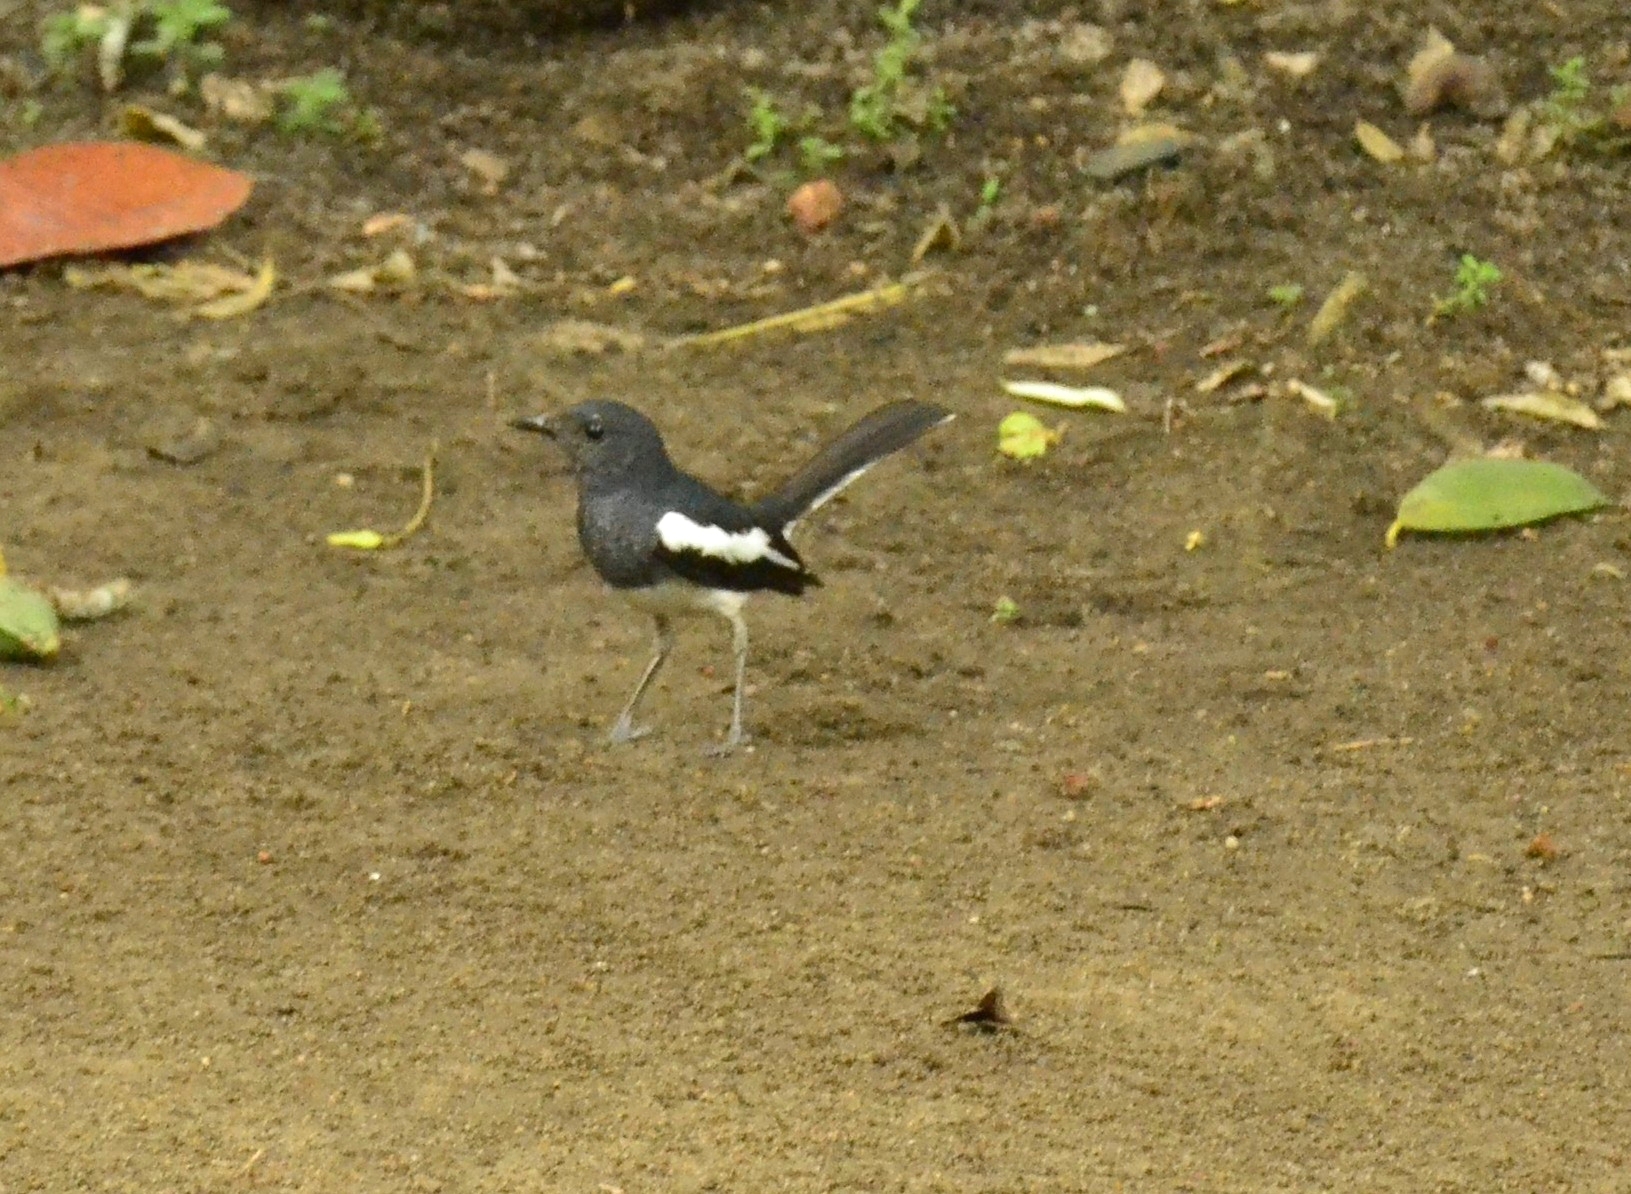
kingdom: Animalia
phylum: Chordata
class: Aves
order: Passeriformes
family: Muscicapidae
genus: Copsychus
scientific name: Copsychus saularis
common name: Oriental magpie-robin
